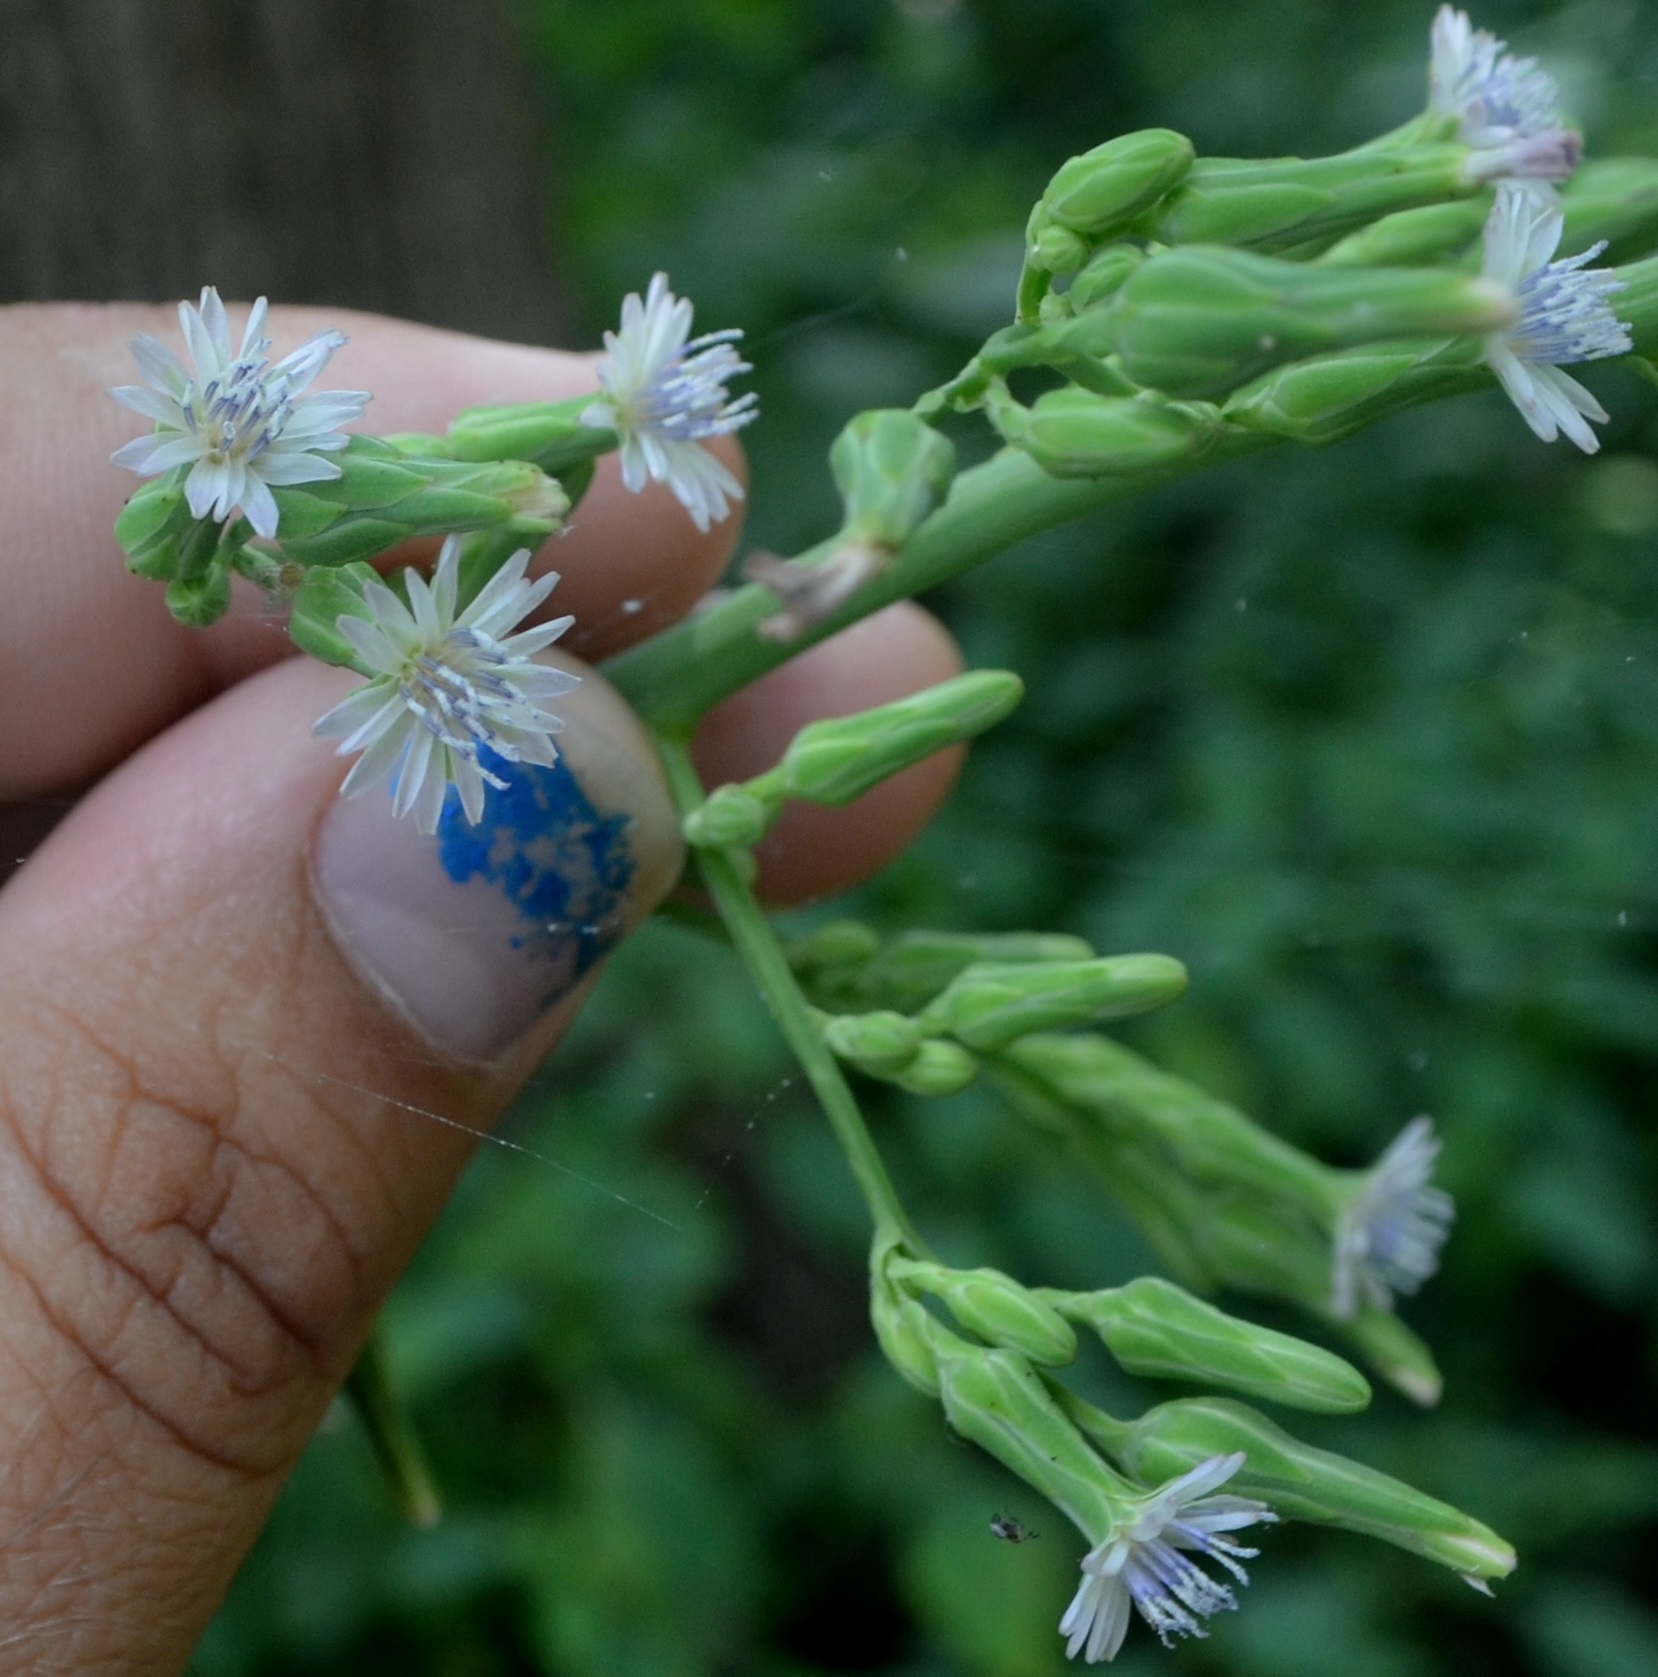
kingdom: Plantae
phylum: Tracheophyta
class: Magnoliopsida
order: Asterales
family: Asteraceae
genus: Lactuca
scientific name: Lactuca biennis
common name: Blue wood lettuce
